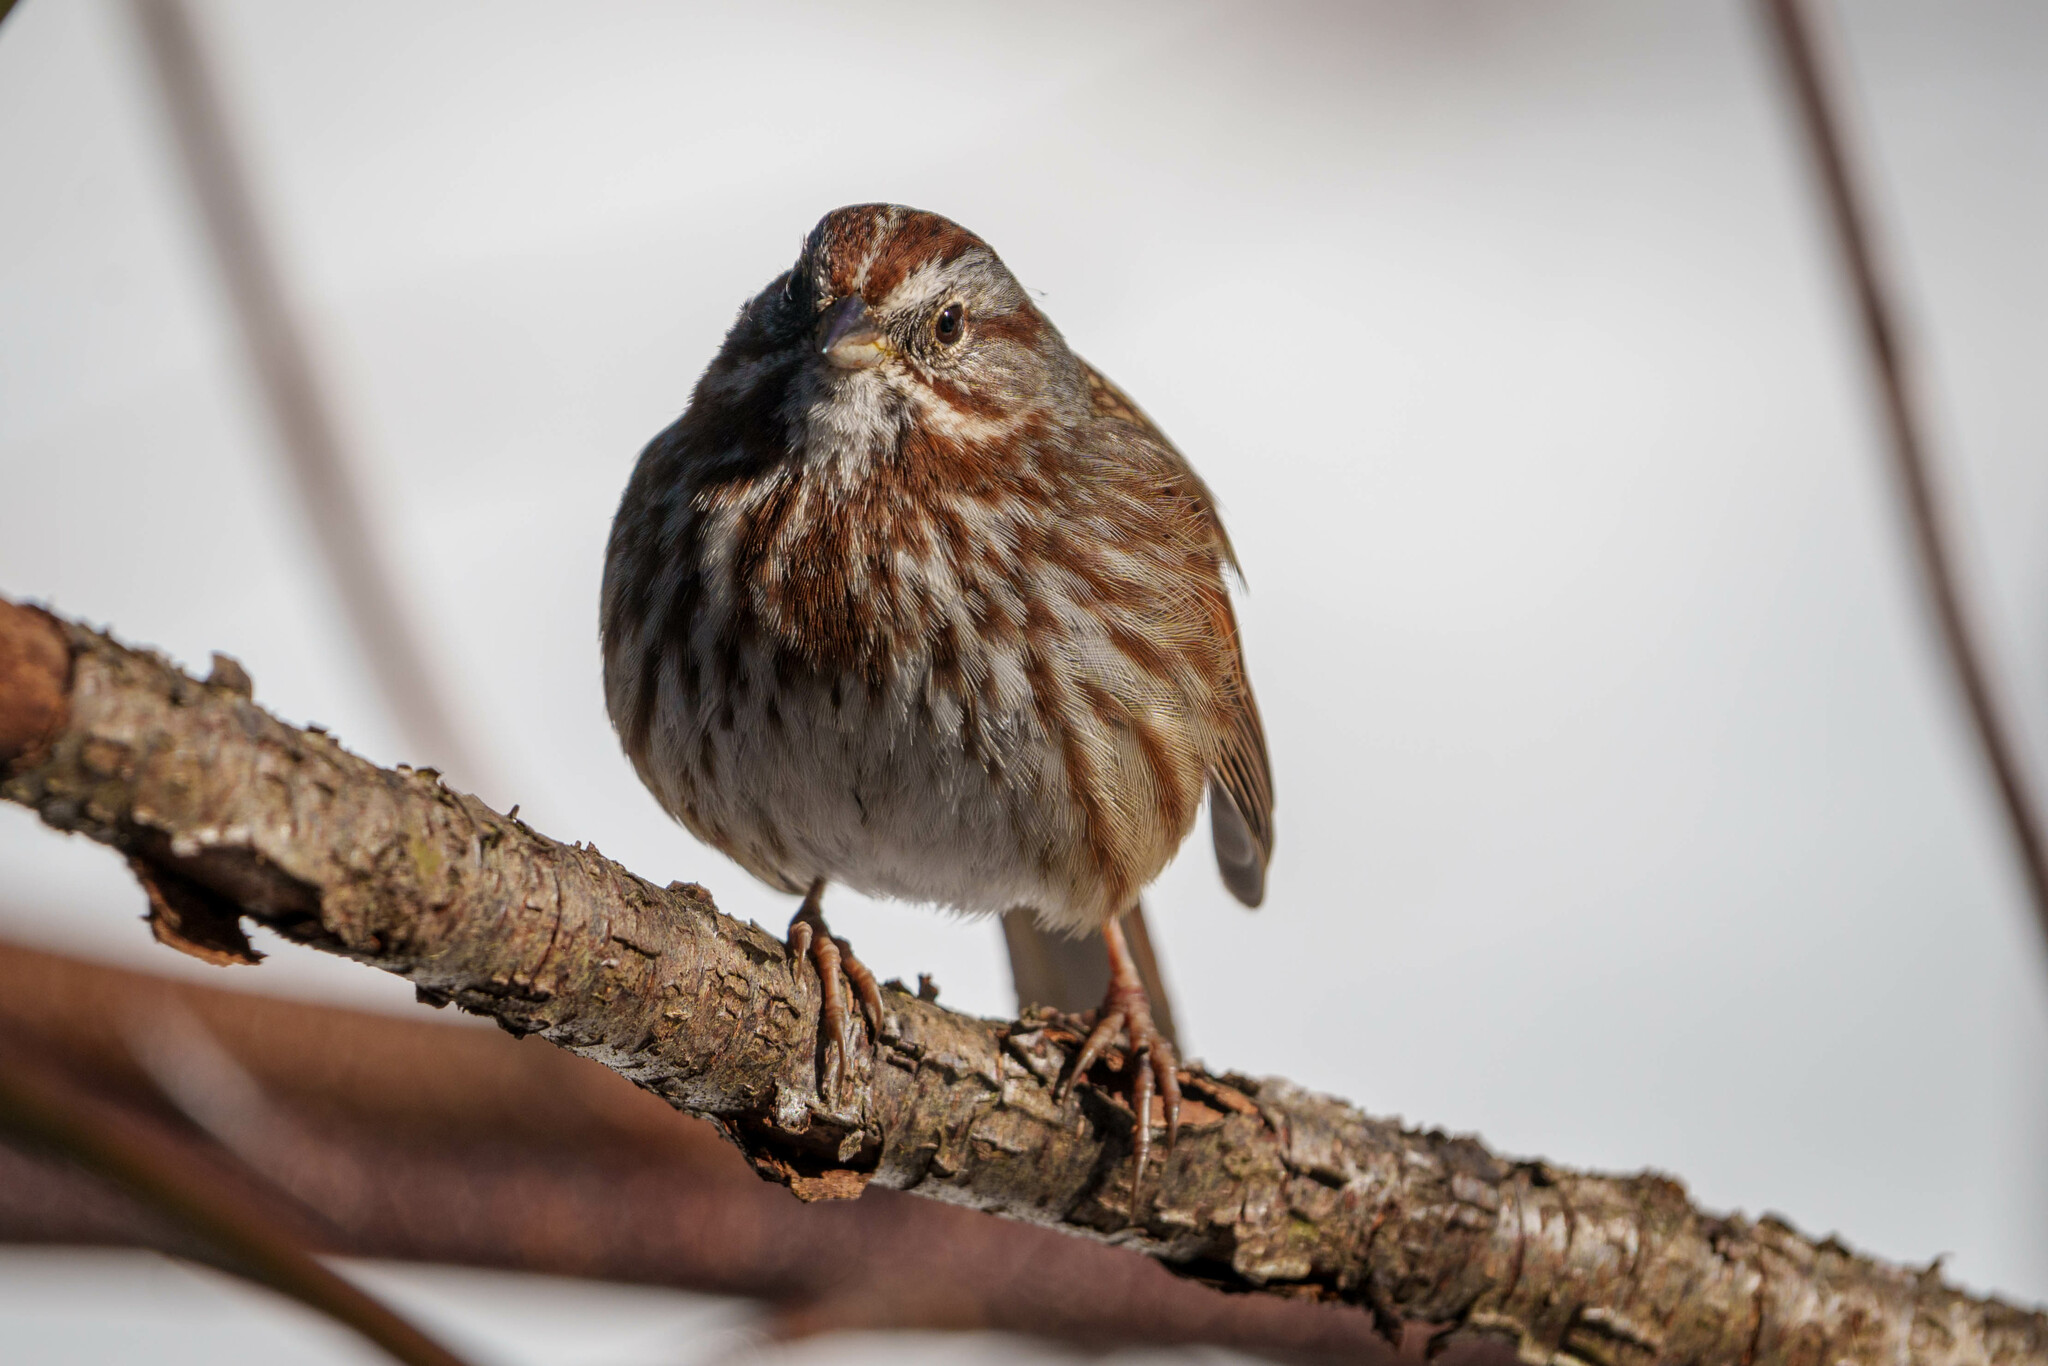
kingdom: Animalia
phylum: Chordata
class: Aves
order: Passeriformes
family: Passerellidae
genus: Melospiza
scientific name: Melospiza melodia
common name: Song sparrow
